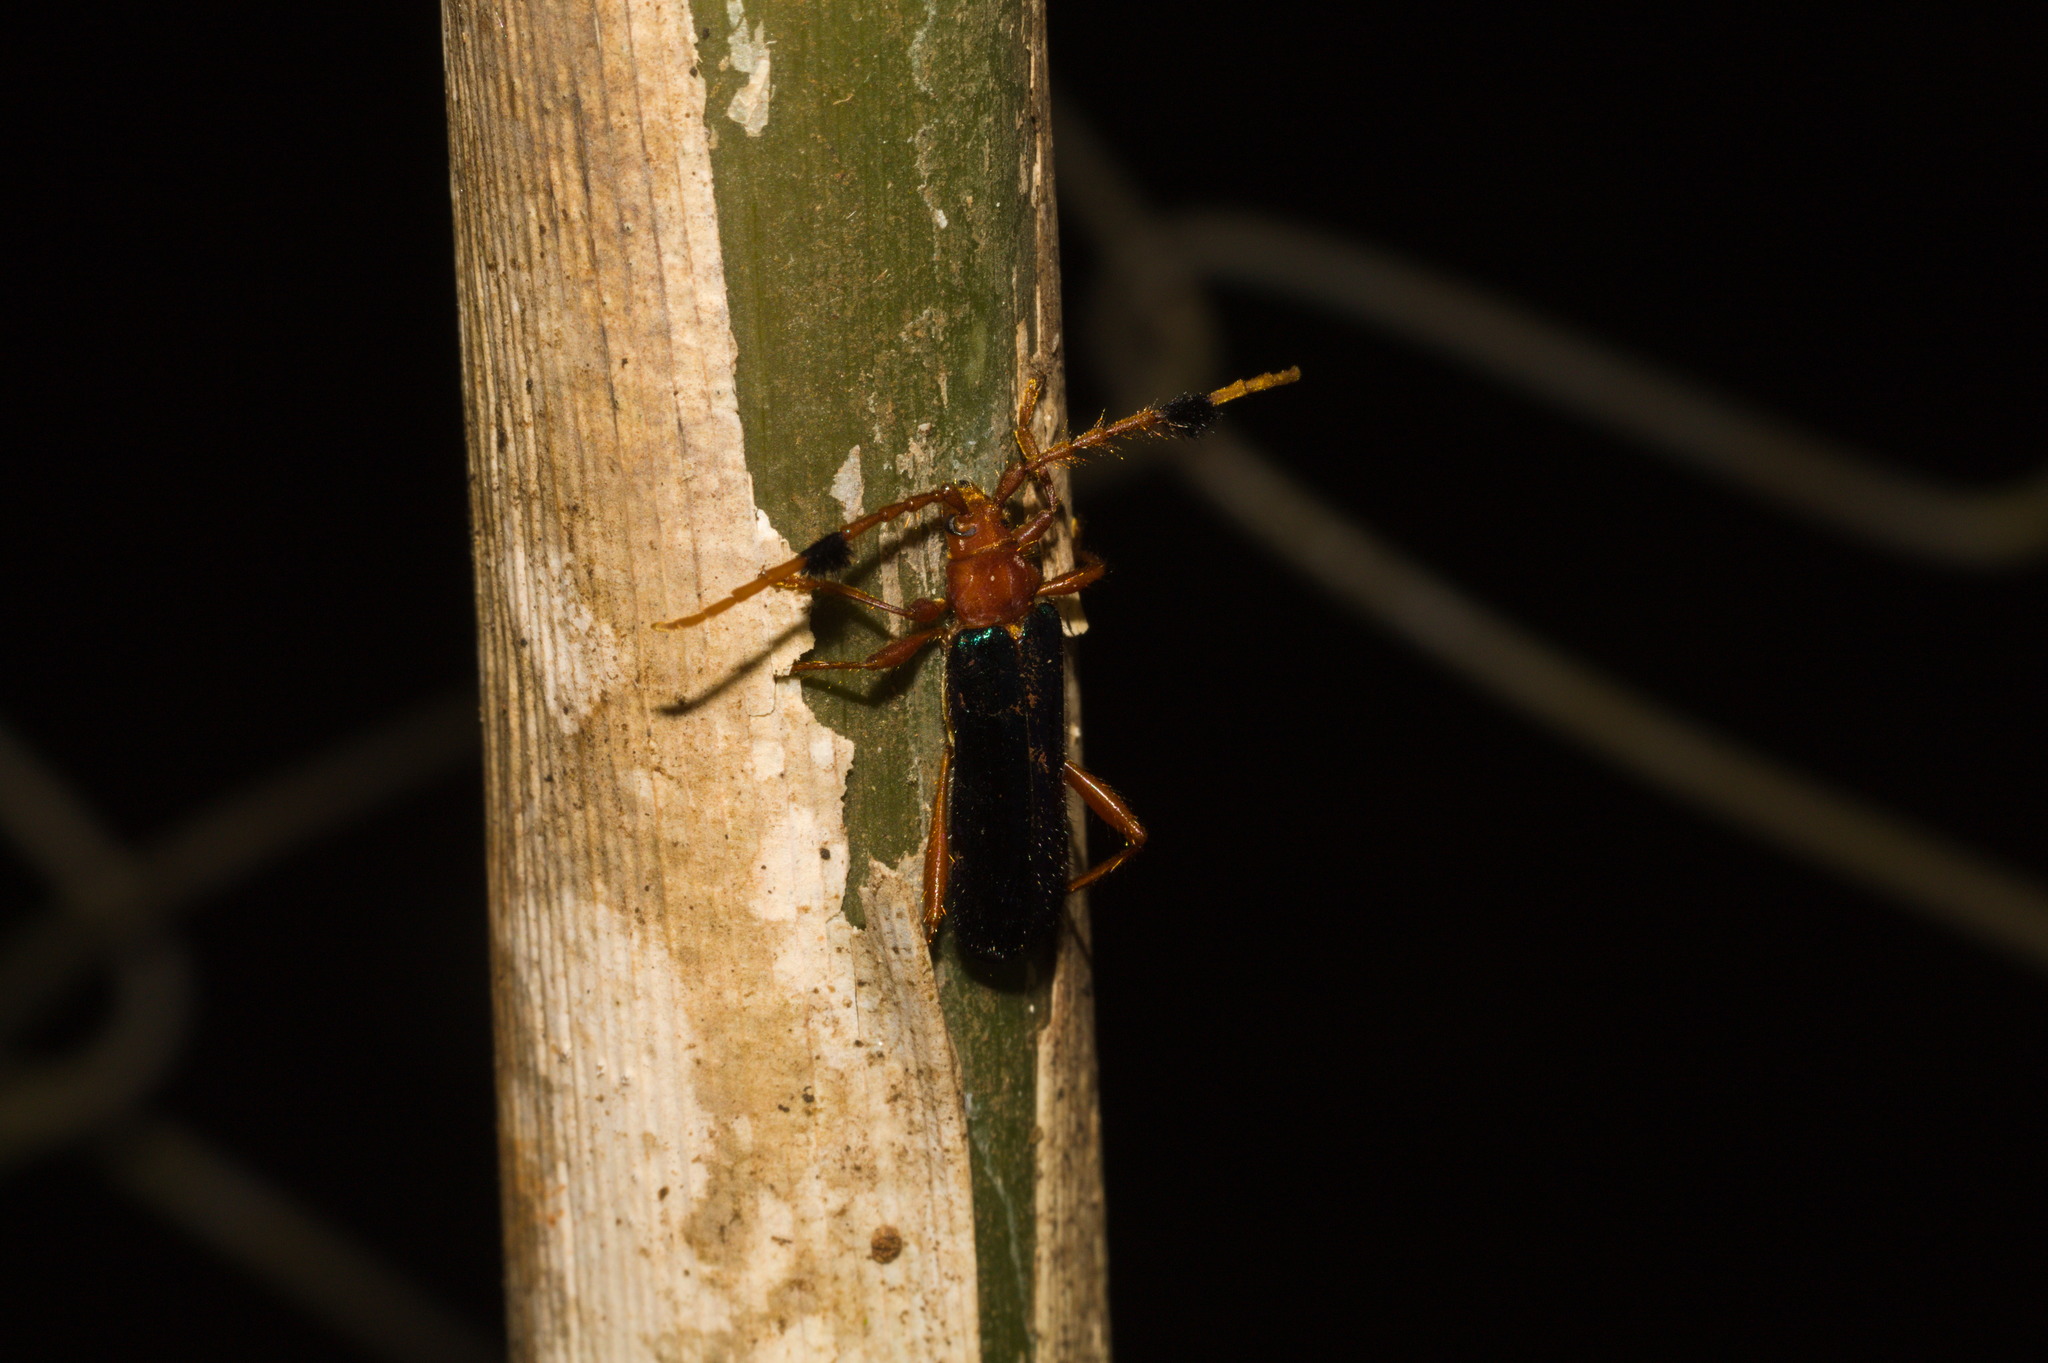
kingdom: Animalia
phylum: Arthropoda
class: Insecta
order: Coleoptera
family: Cerambycidae
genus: Compsoceridius
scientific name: Compsoceridius gounellei
